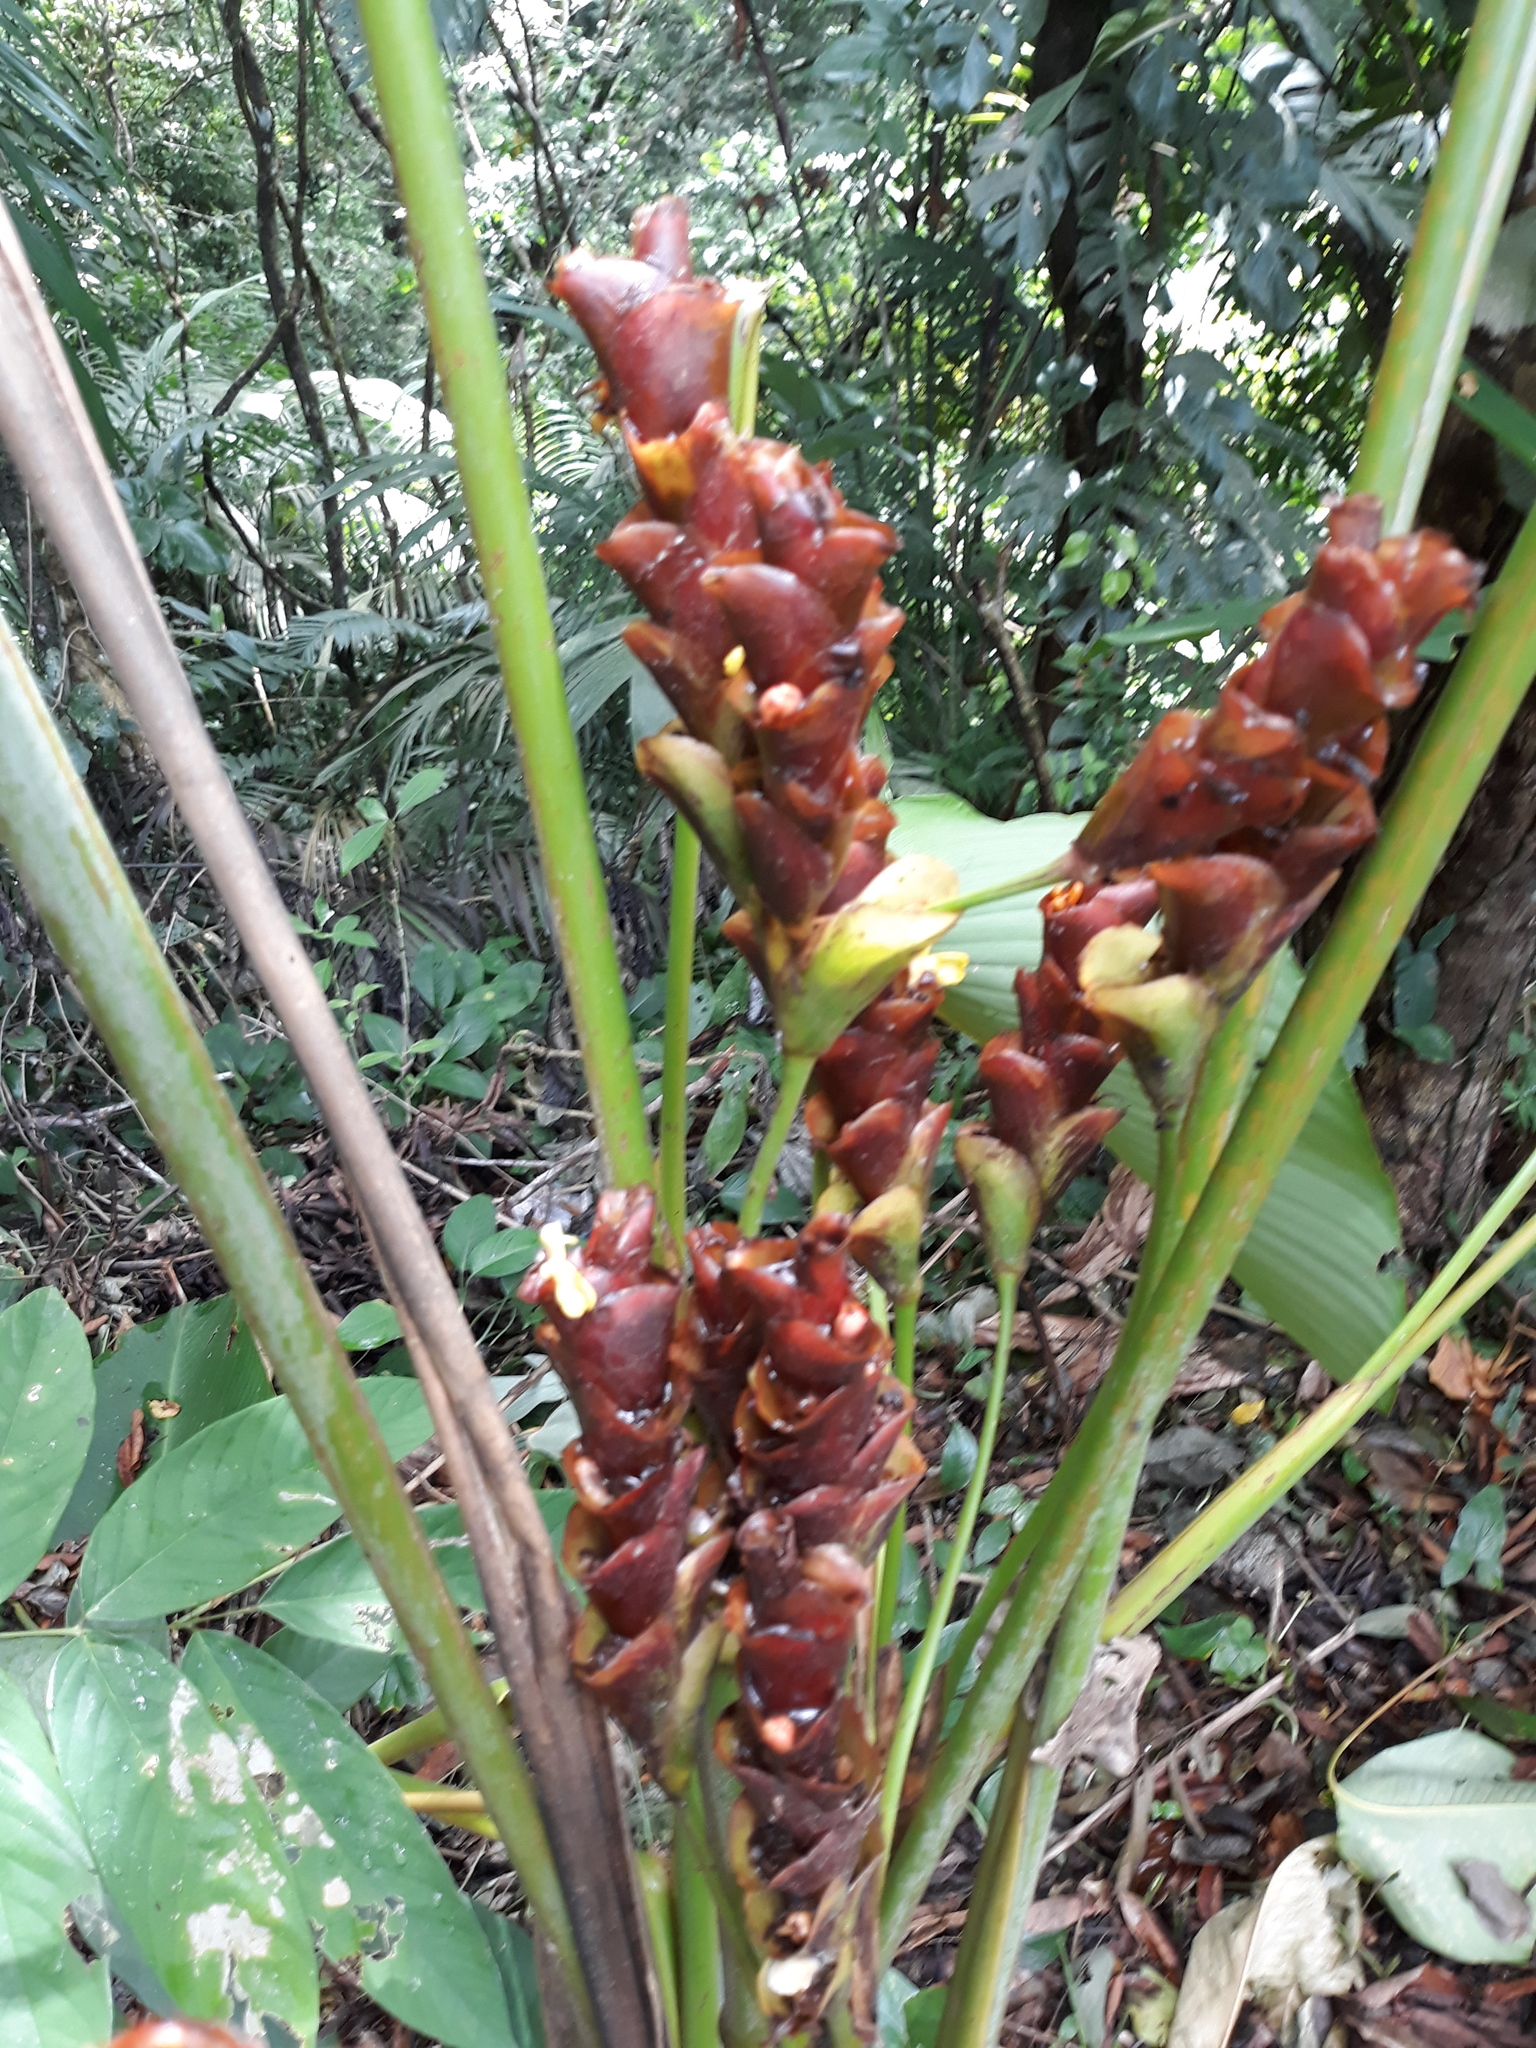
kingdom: Plantae
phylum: Tracheophyta
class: Liliopsida
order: Zingiberales
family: Marantaceae
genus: Calathea
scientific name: Calathea lutea
